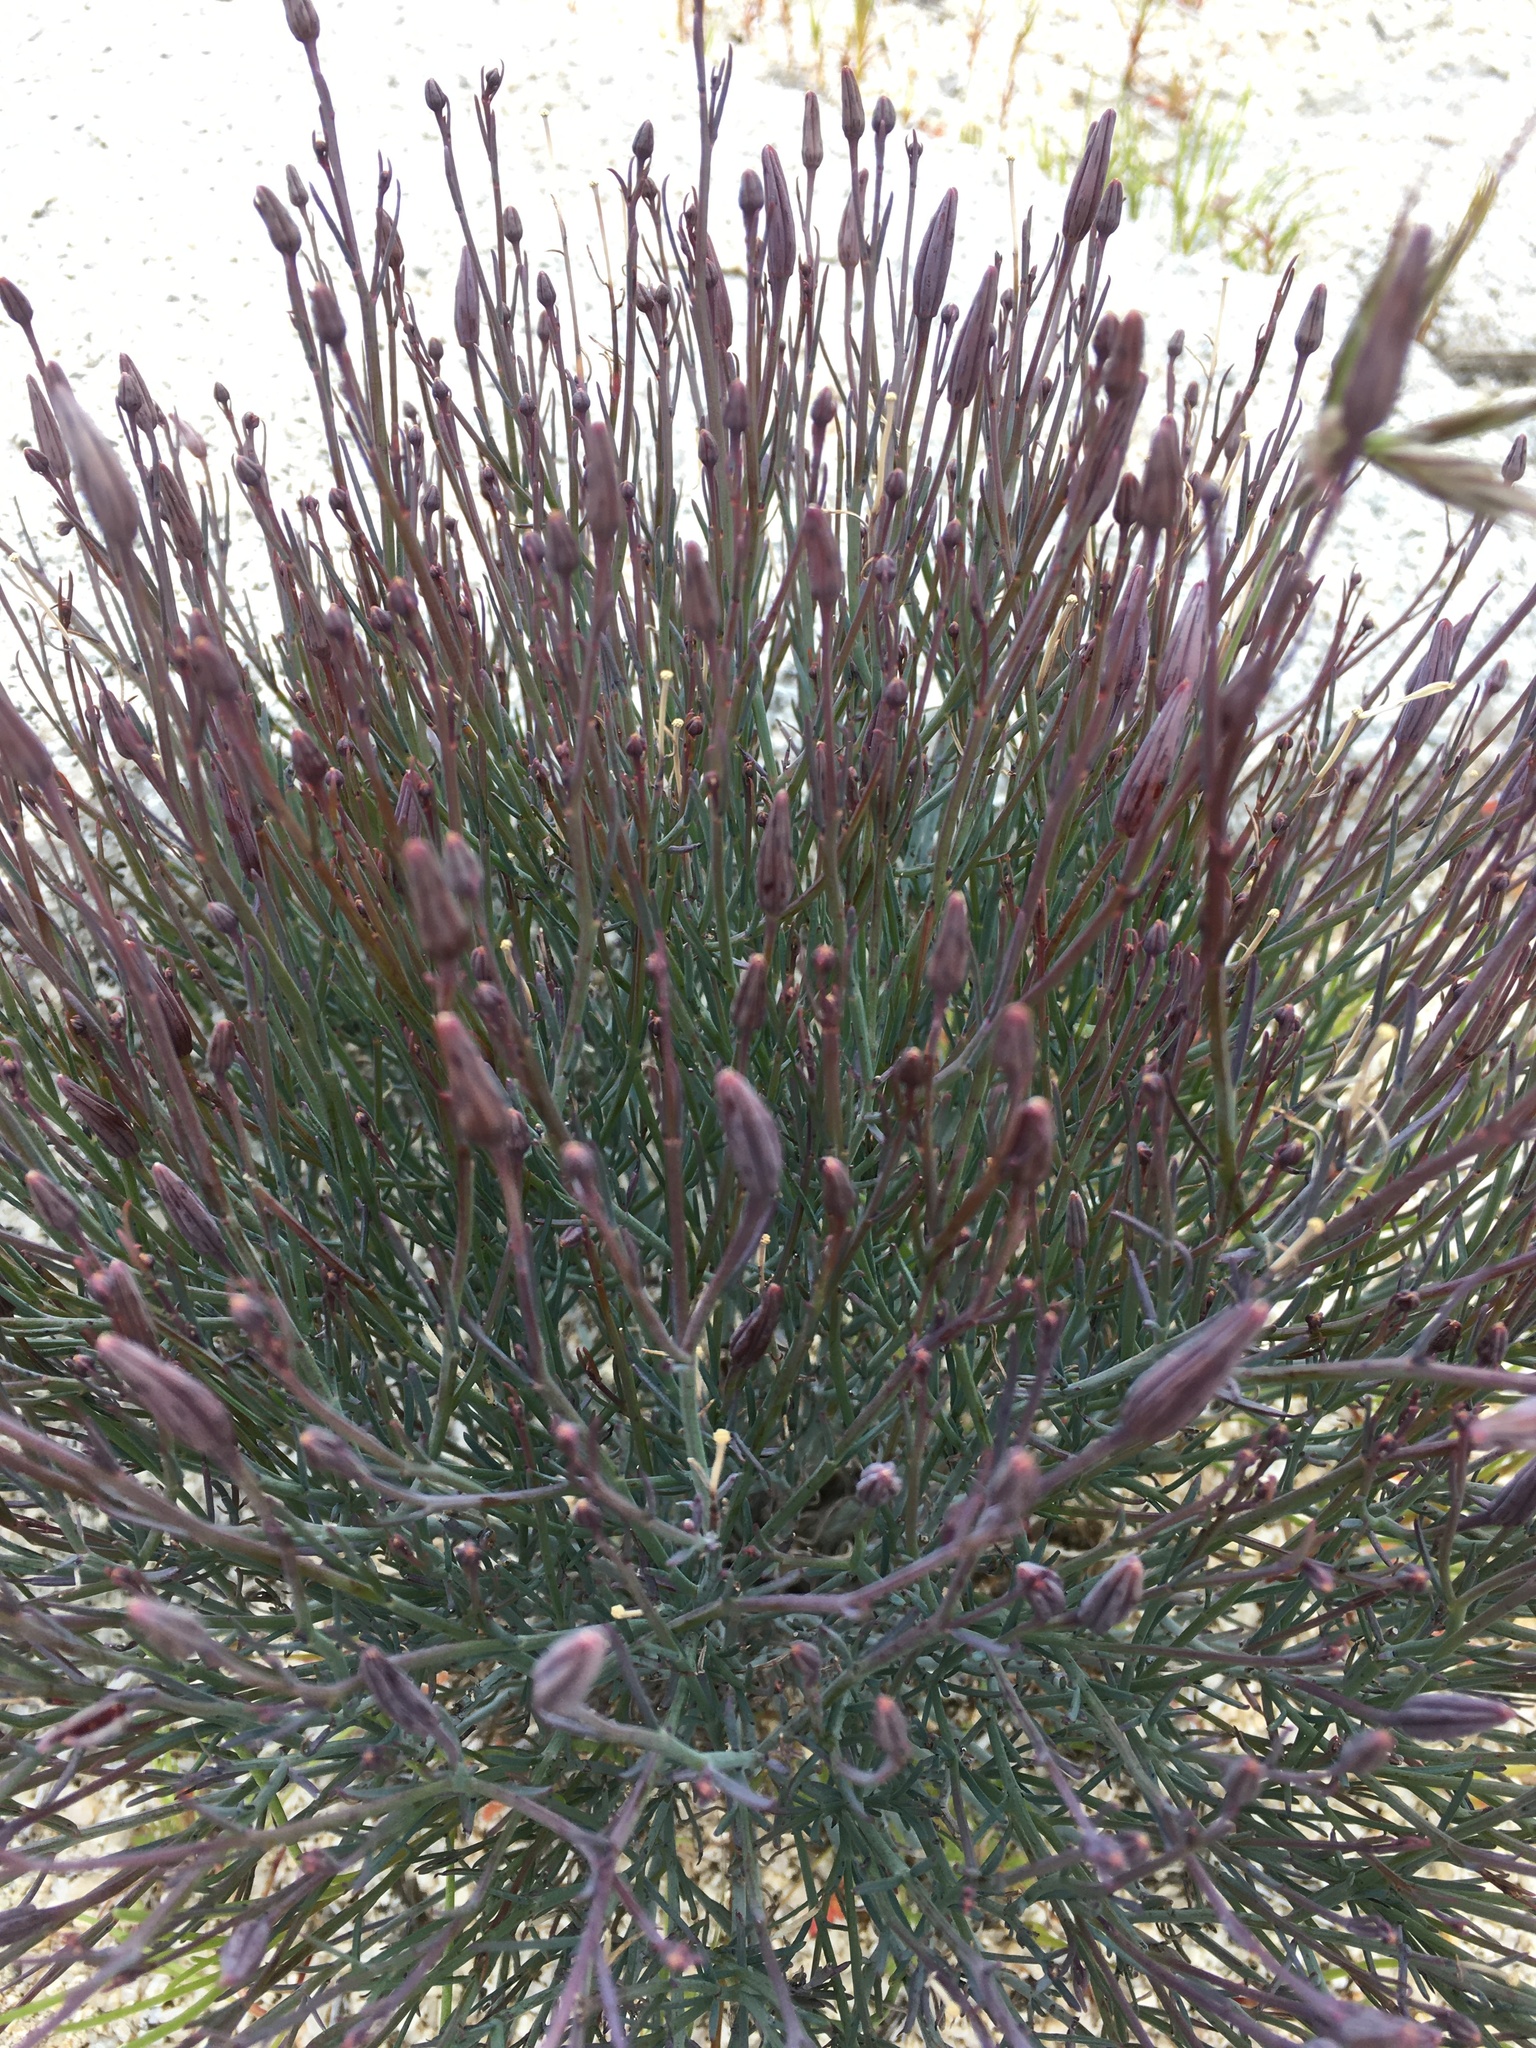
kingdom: Plantae
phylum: Tracheophyta
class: Magnoliopsida
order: Asterales
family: Asteraceae
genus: Porophyllum
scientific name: Porophyllum gracile
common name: Odora
